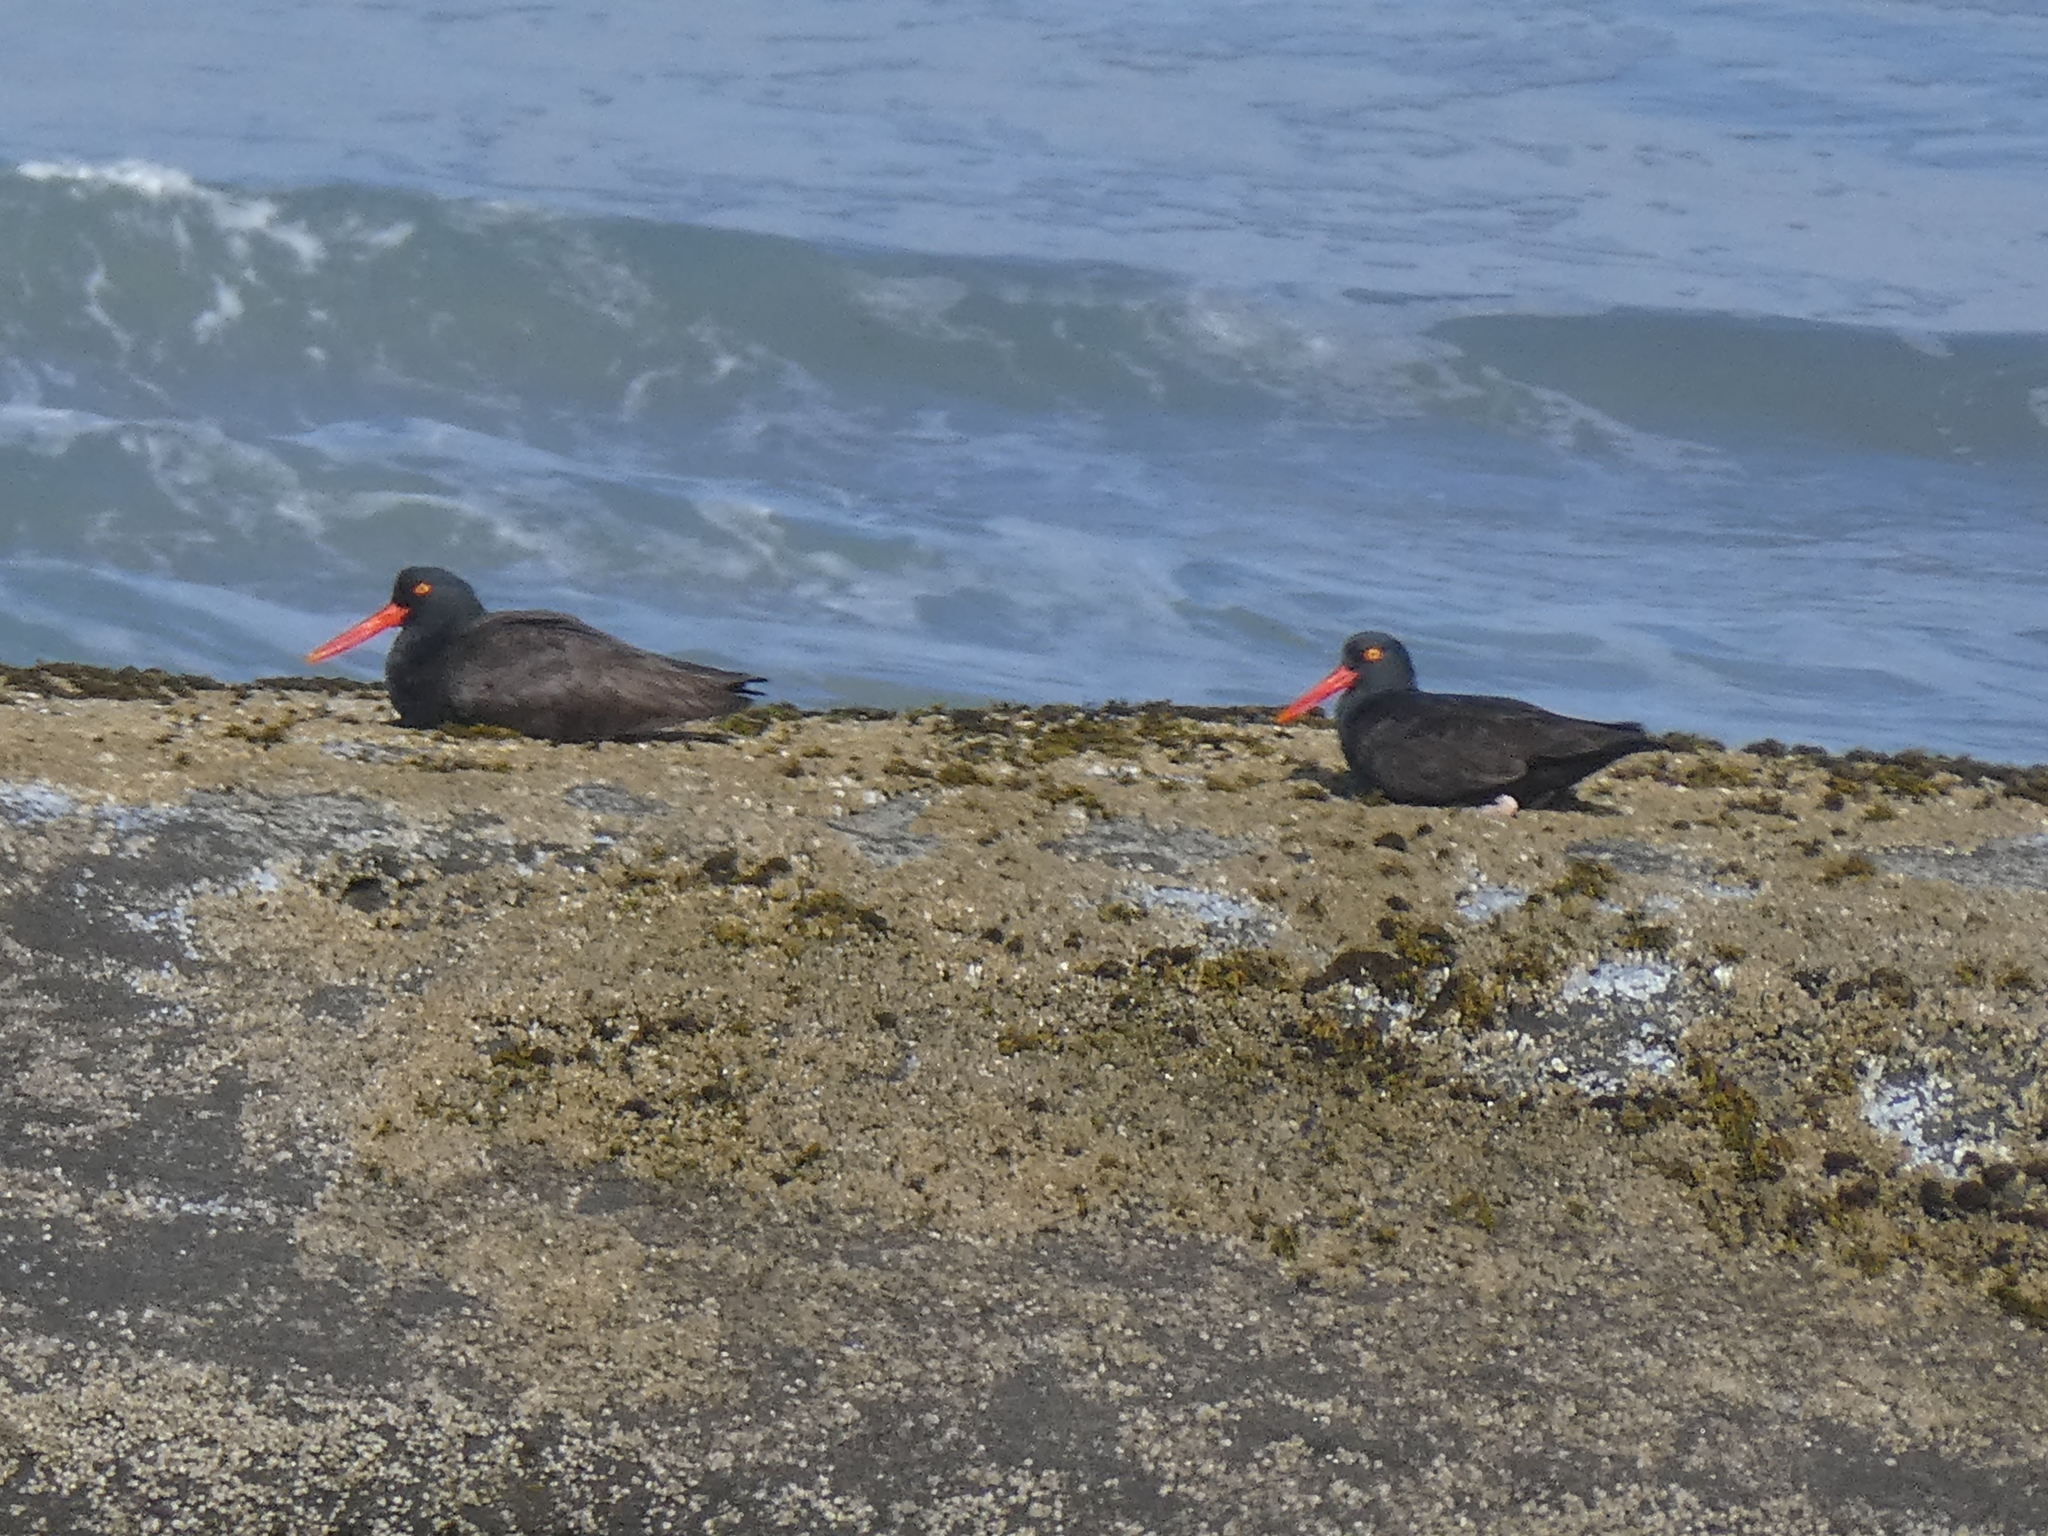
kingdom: Animalia
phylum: Chordata
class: Aves
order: Charadriiformes
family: Haematopodidae
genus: Haematopus
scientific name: Haematopus bachmani
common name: Black oystercatcher
